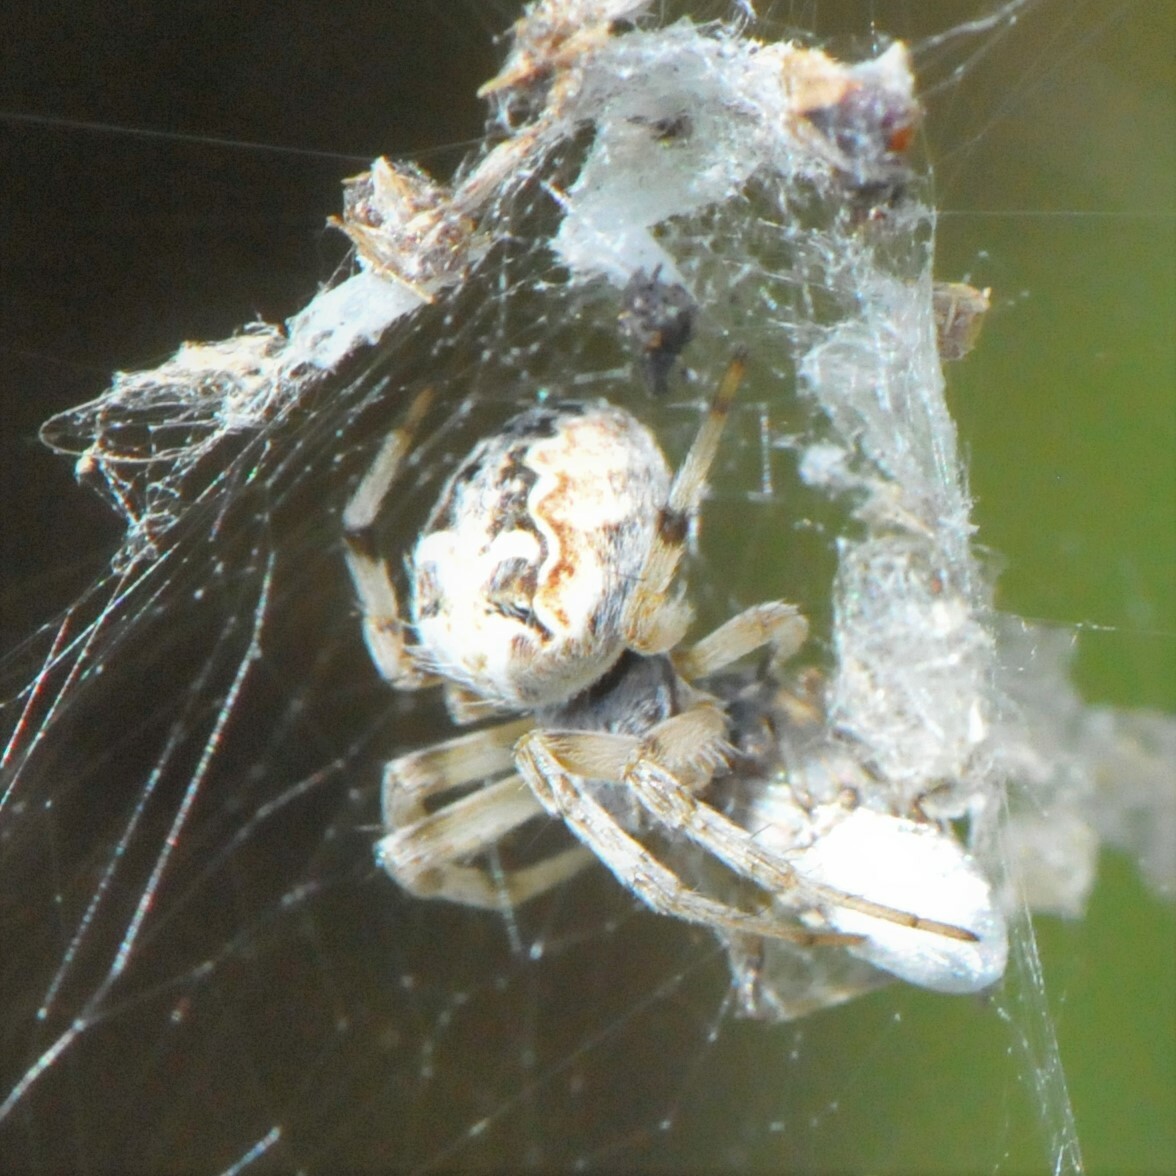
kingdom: Animalia
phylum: Arthropoda
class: Arachnida
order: Araneae
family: Araneidae
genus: Metepeira
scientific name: Metepeira
